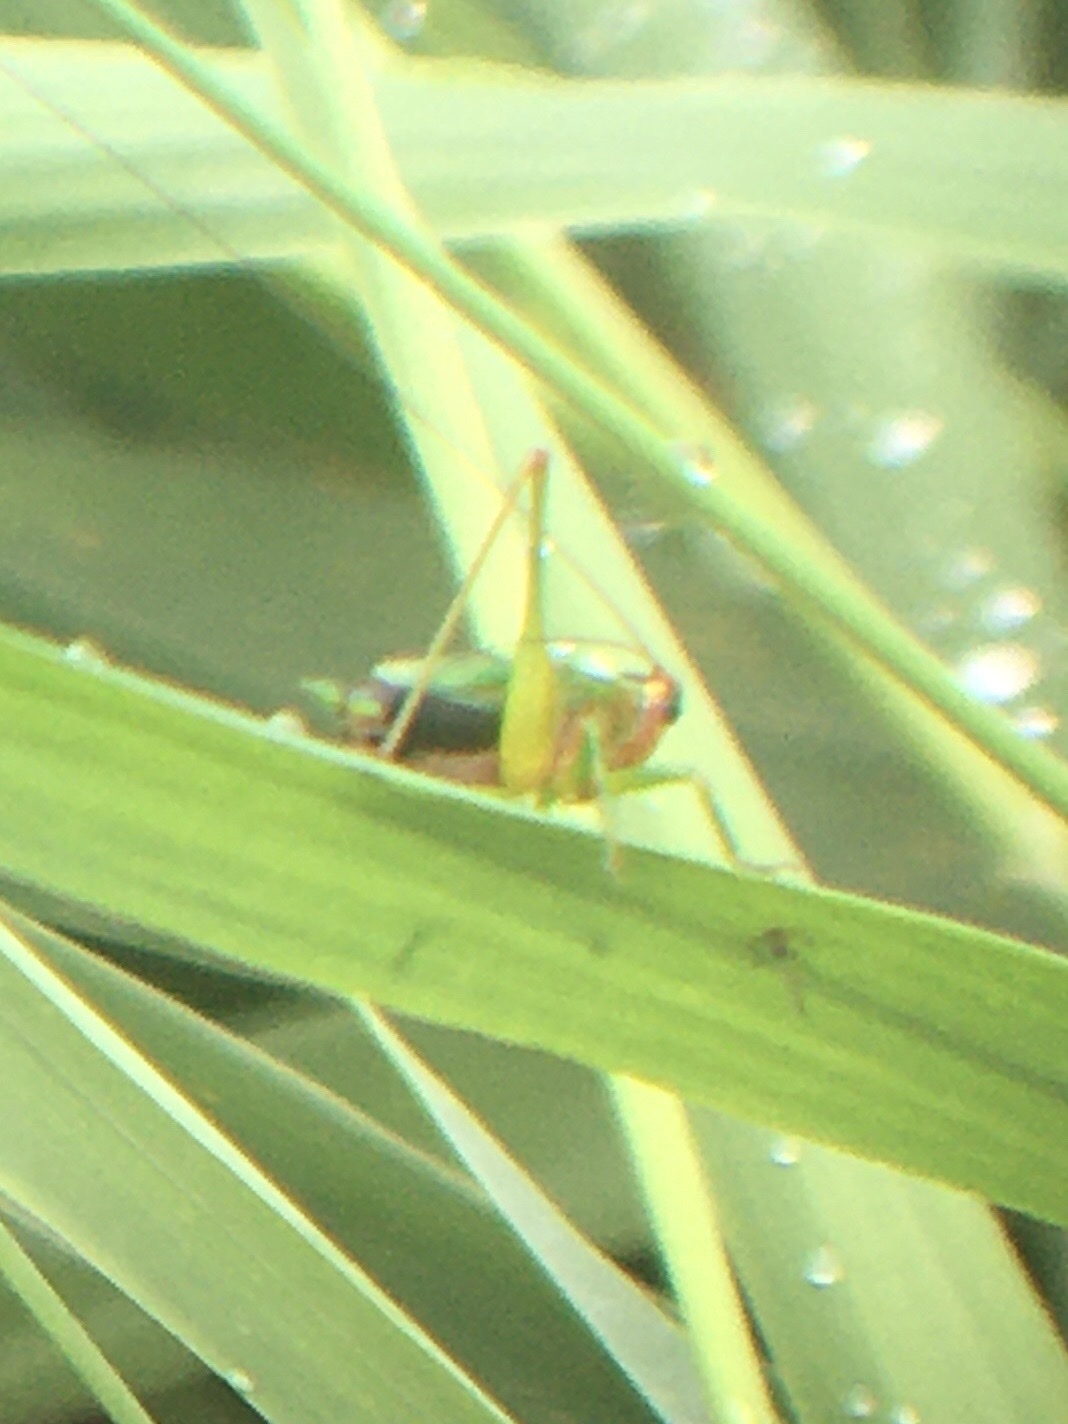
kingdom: Animalia
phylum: Arthropoda
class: Insecta
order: Orthoptera
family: Tettigoniidae
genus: Conocephalus
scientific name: Conocephalus nigropleurum
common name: Black-sided meadow katydid
